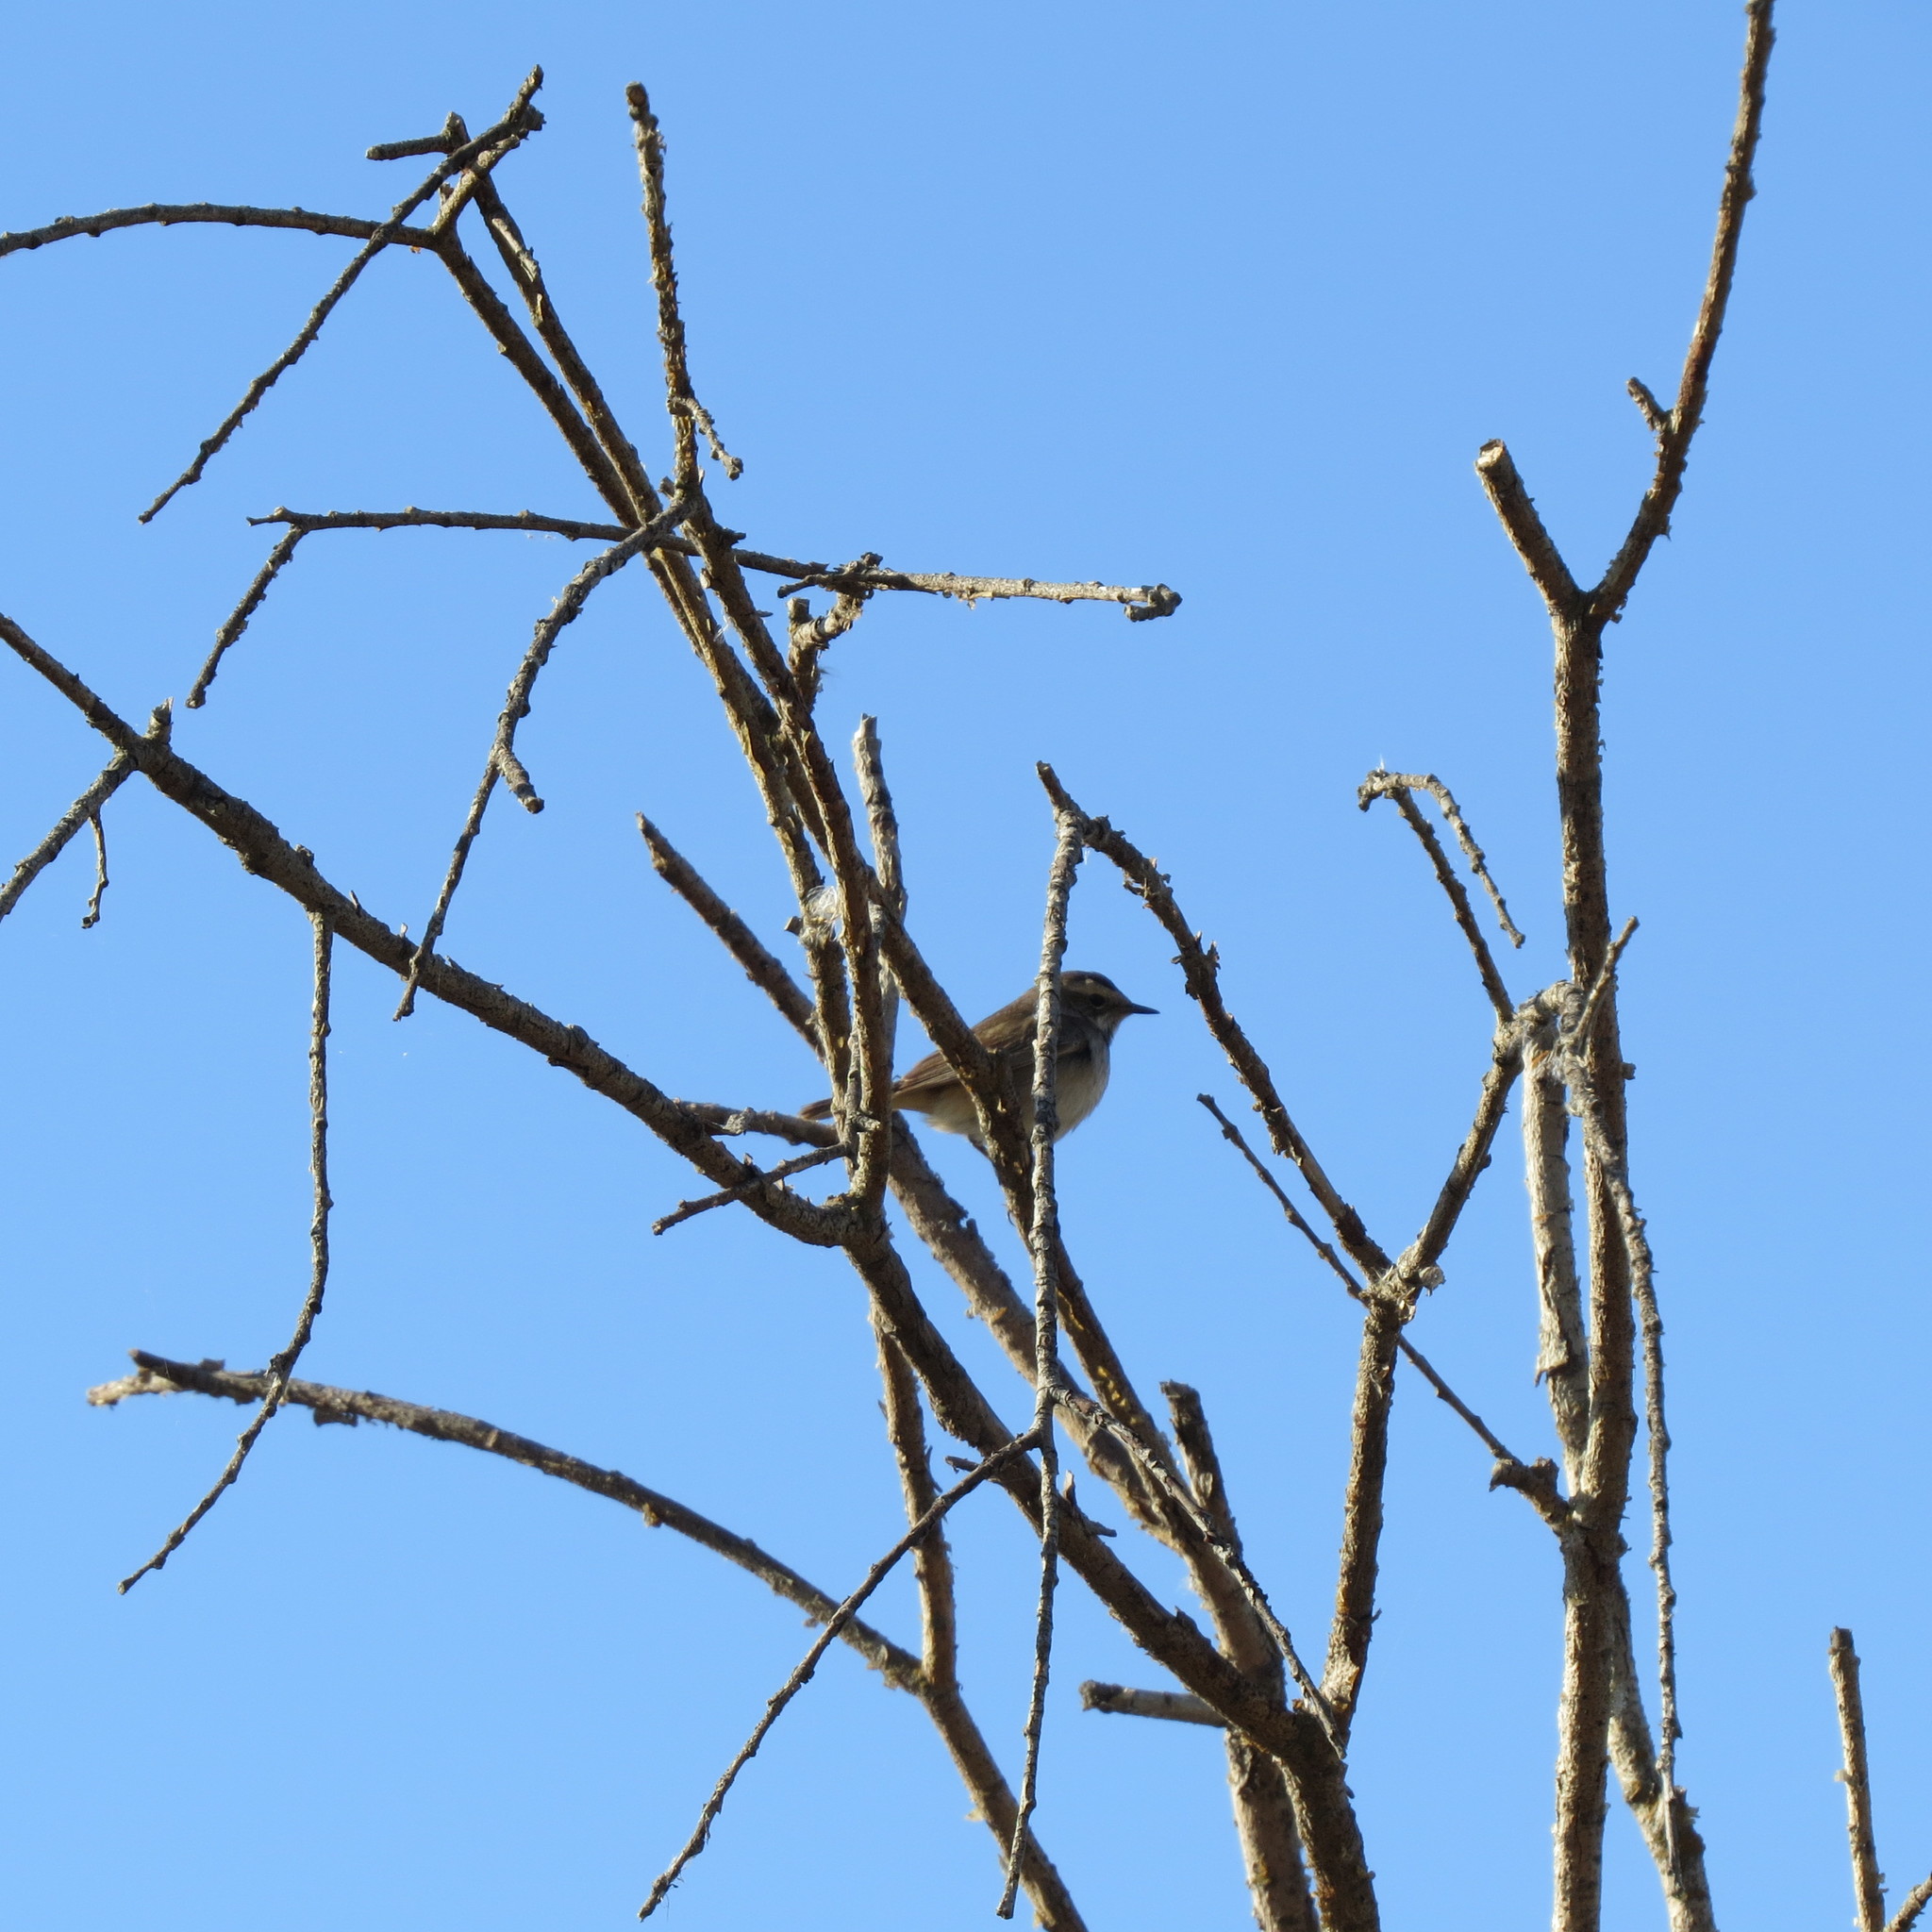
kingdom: Animalia
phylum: Chordata
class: Aves
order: Passeriformes
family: Muscicapidae
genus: Luscinia
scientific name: Luscinia svecica
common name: Bluethroat
